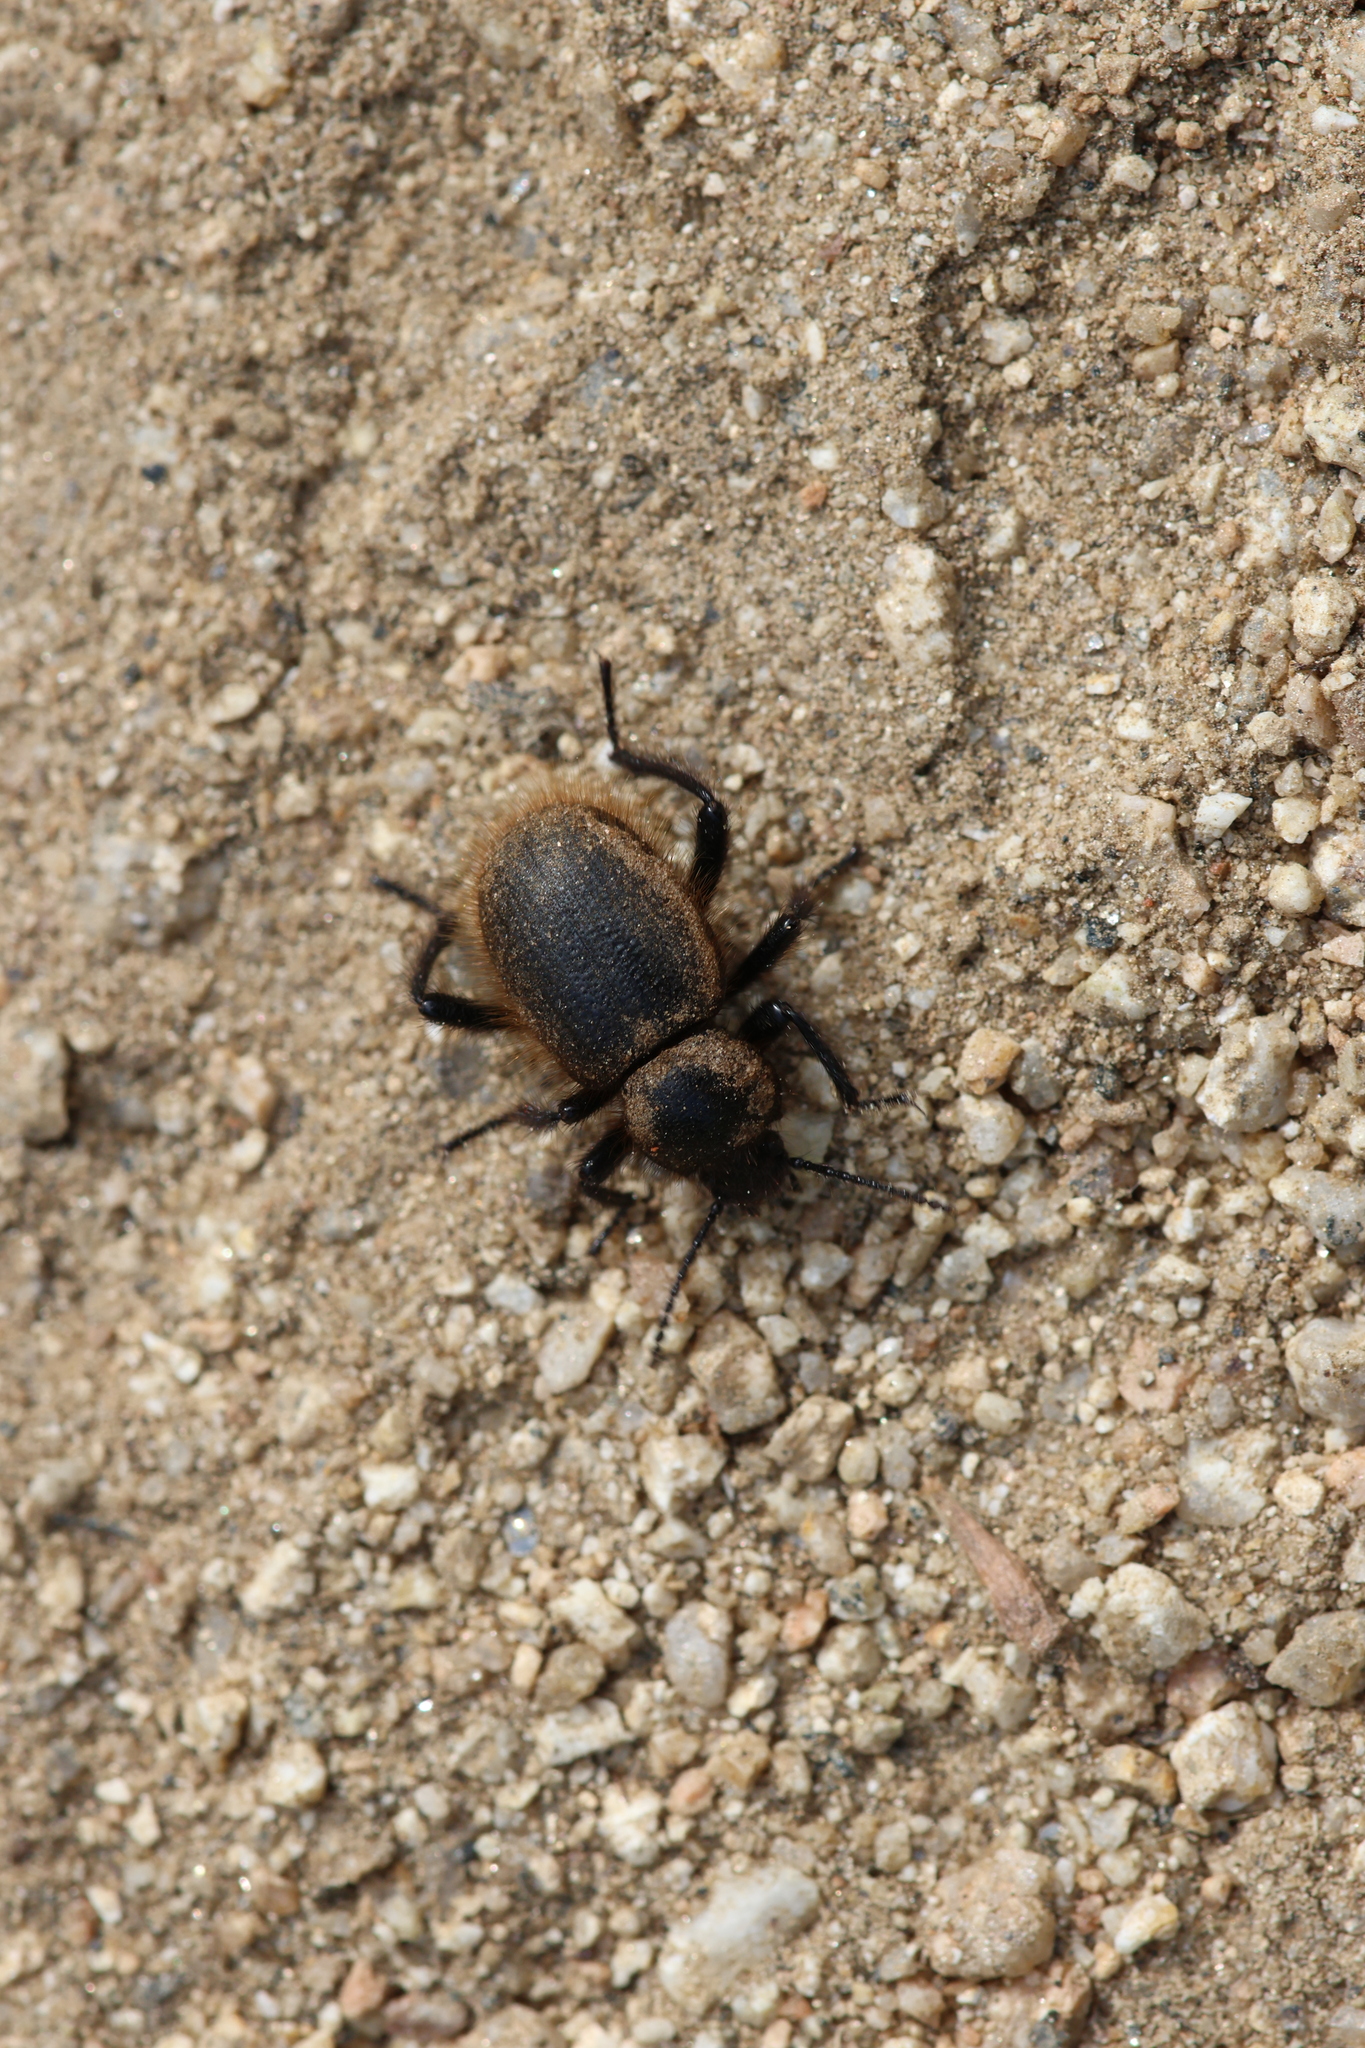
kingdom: Animalia
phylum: Arthropoda
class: Insecta
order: Coleoptera
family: Tenebrionidae
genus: Eleodes
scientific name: Eleodes osculans
